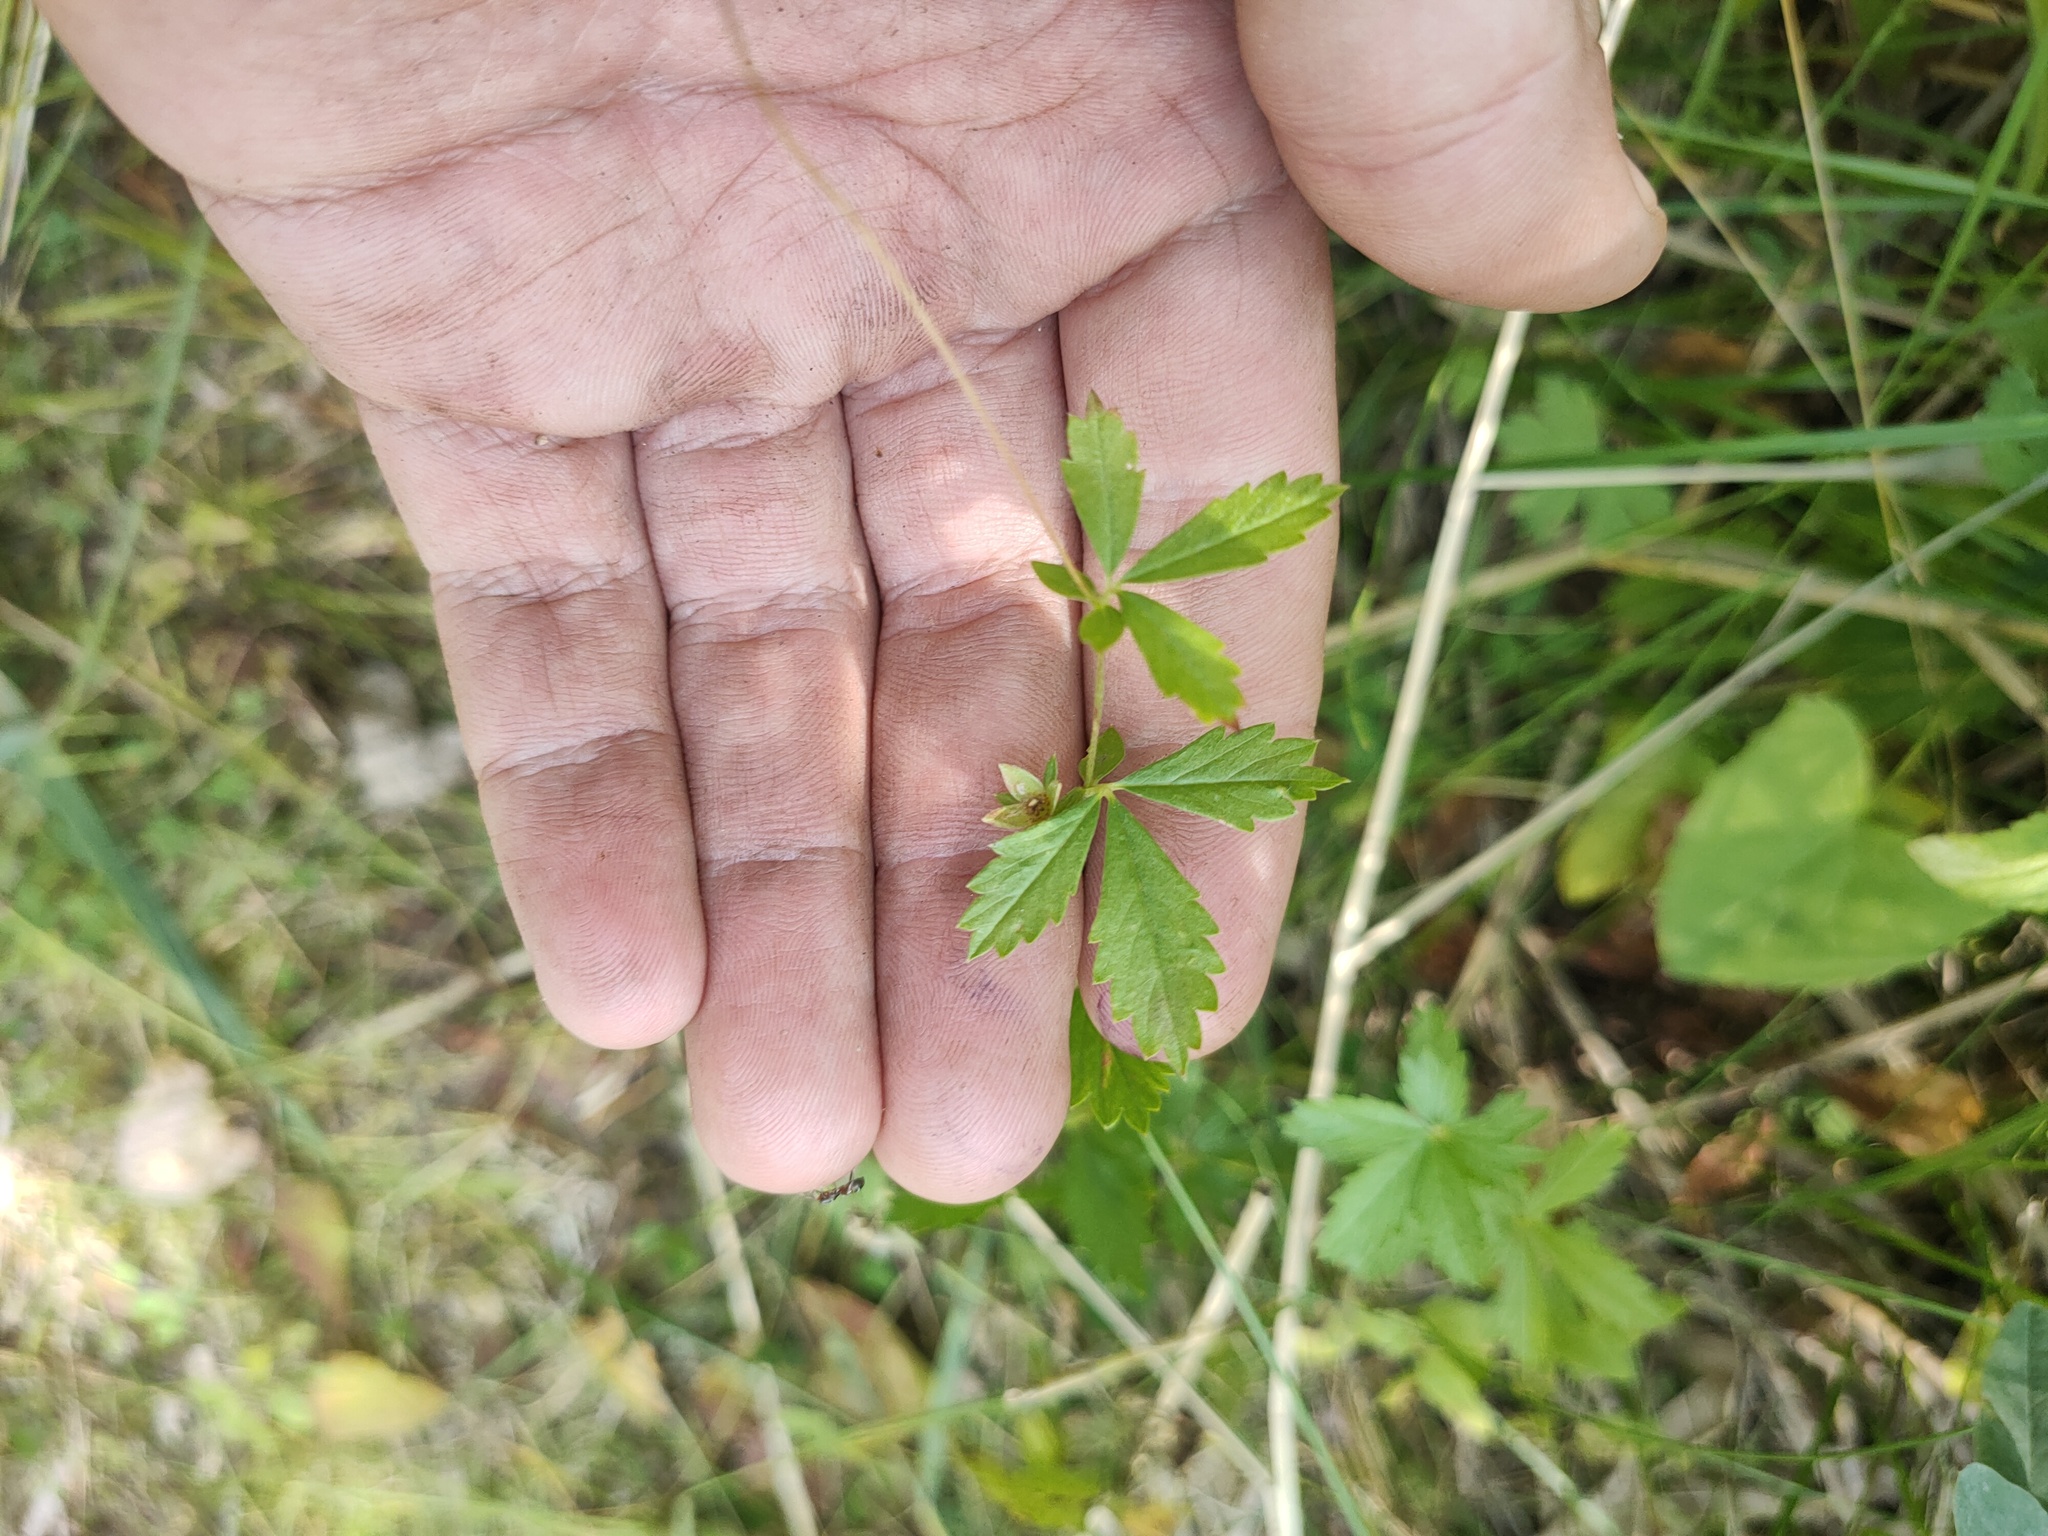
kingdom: Plantae
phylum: Tracheophyta
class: Magnoliopsida
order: Rosales
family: Rosaceae
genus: Potentilla
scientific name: Potentilla erecta
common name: Tormentil
